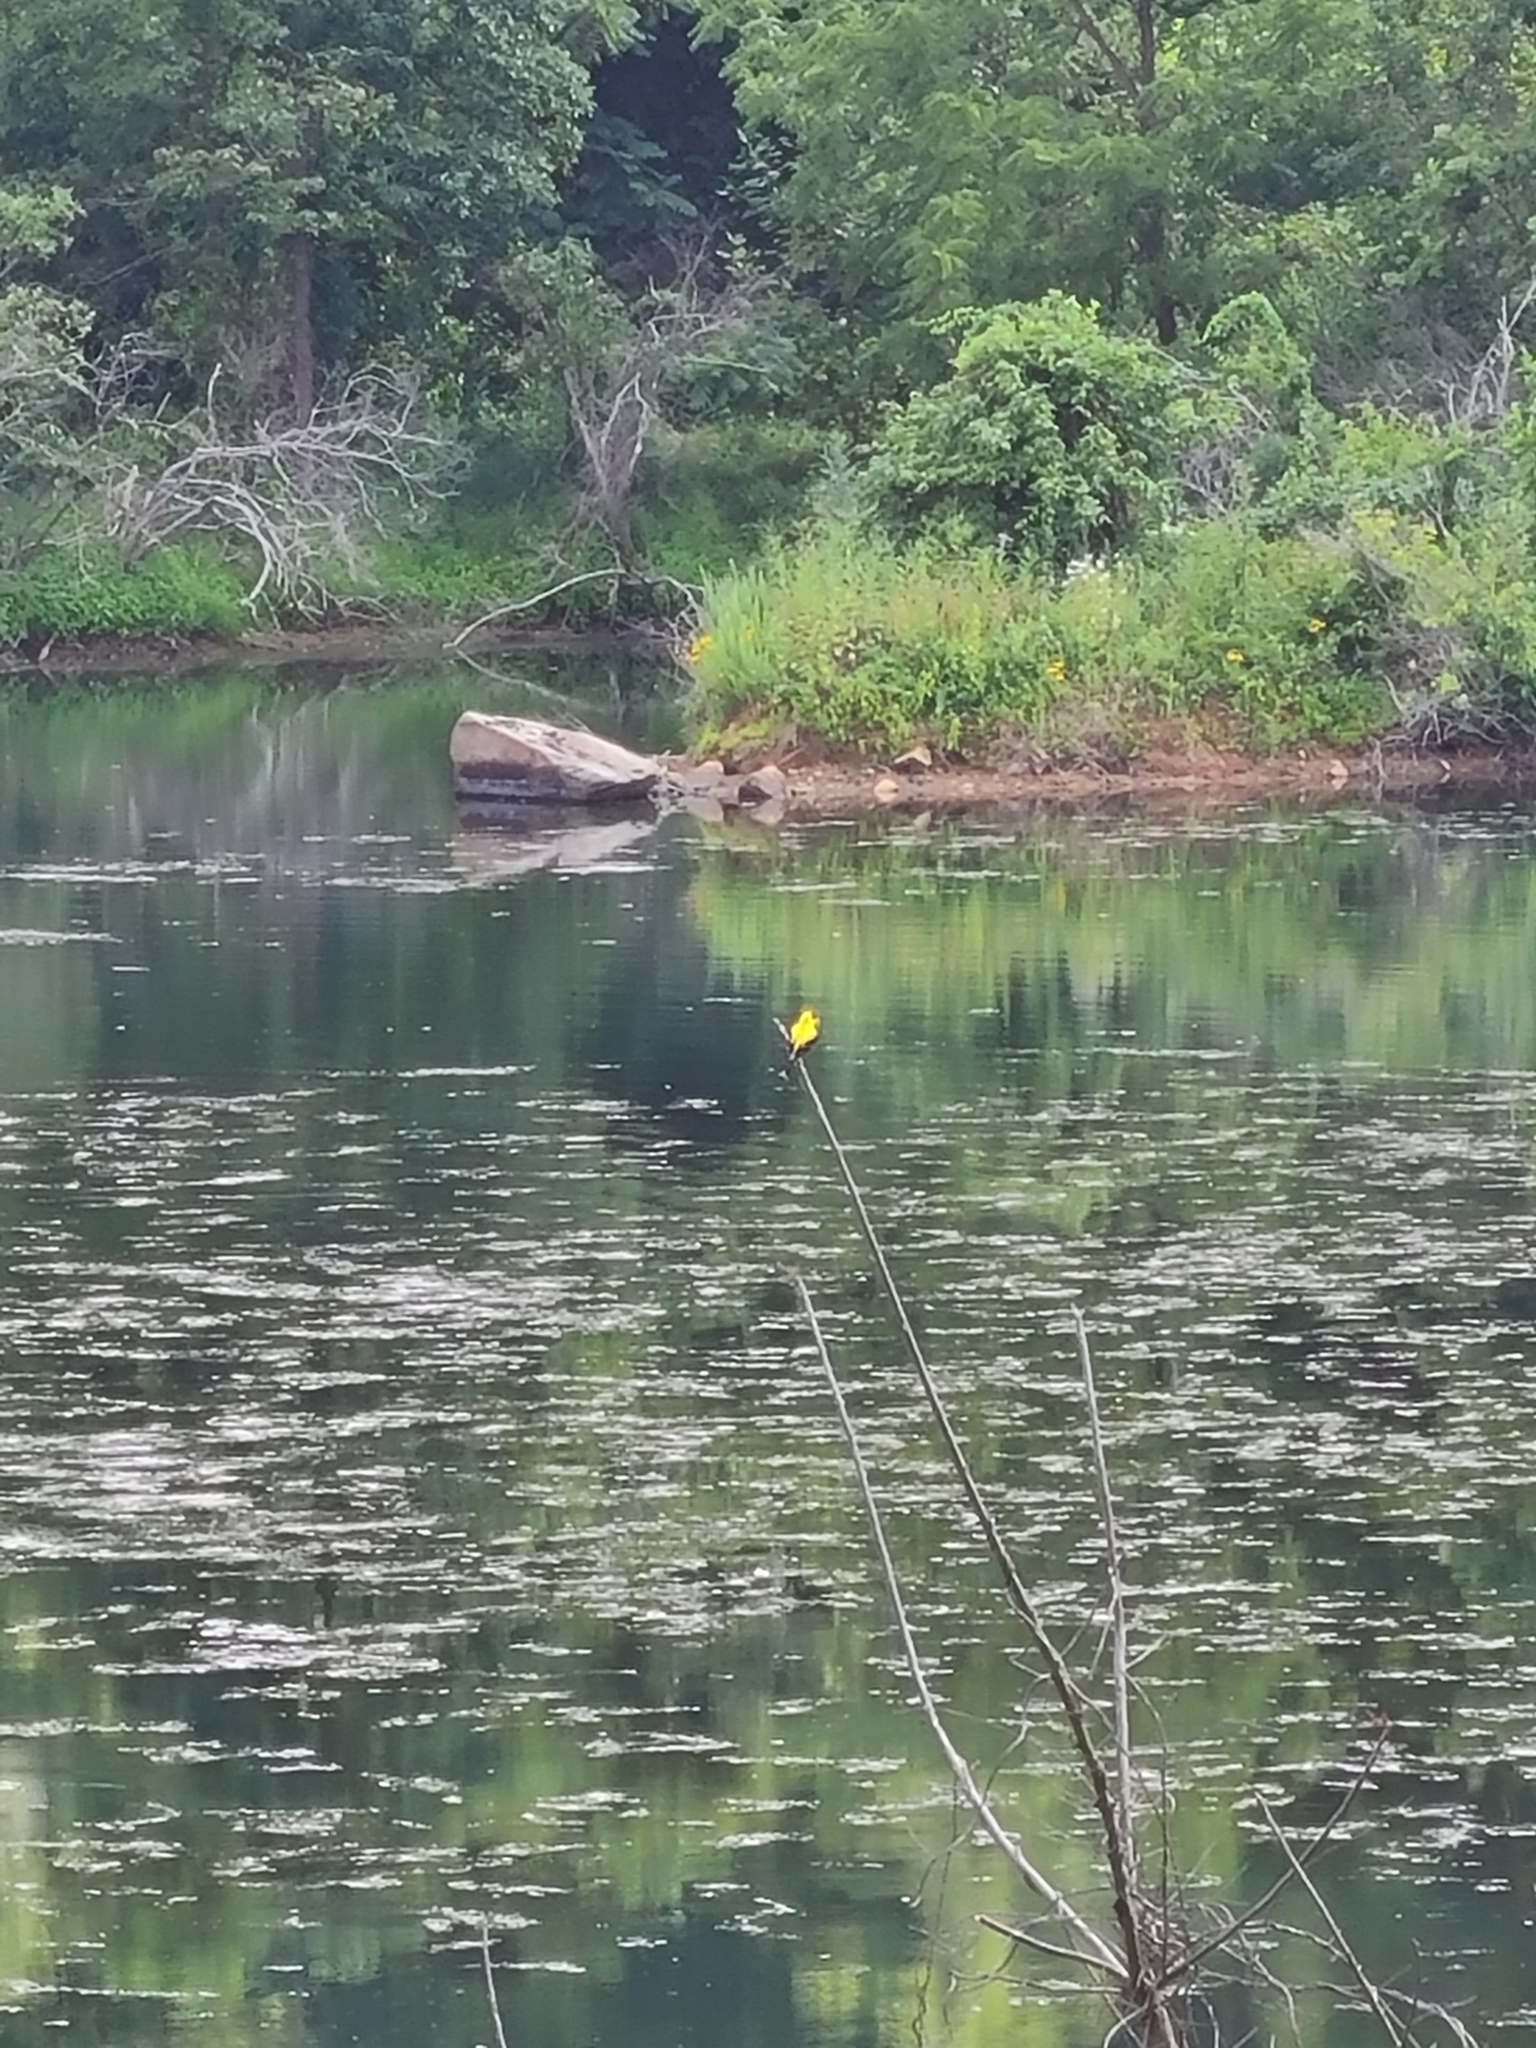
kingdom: Animalia
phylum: Chordata
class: Aves
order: Passeriformes
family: Fringillidae
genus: Spinus
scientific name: Spinus tristis
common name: American goldfinch
